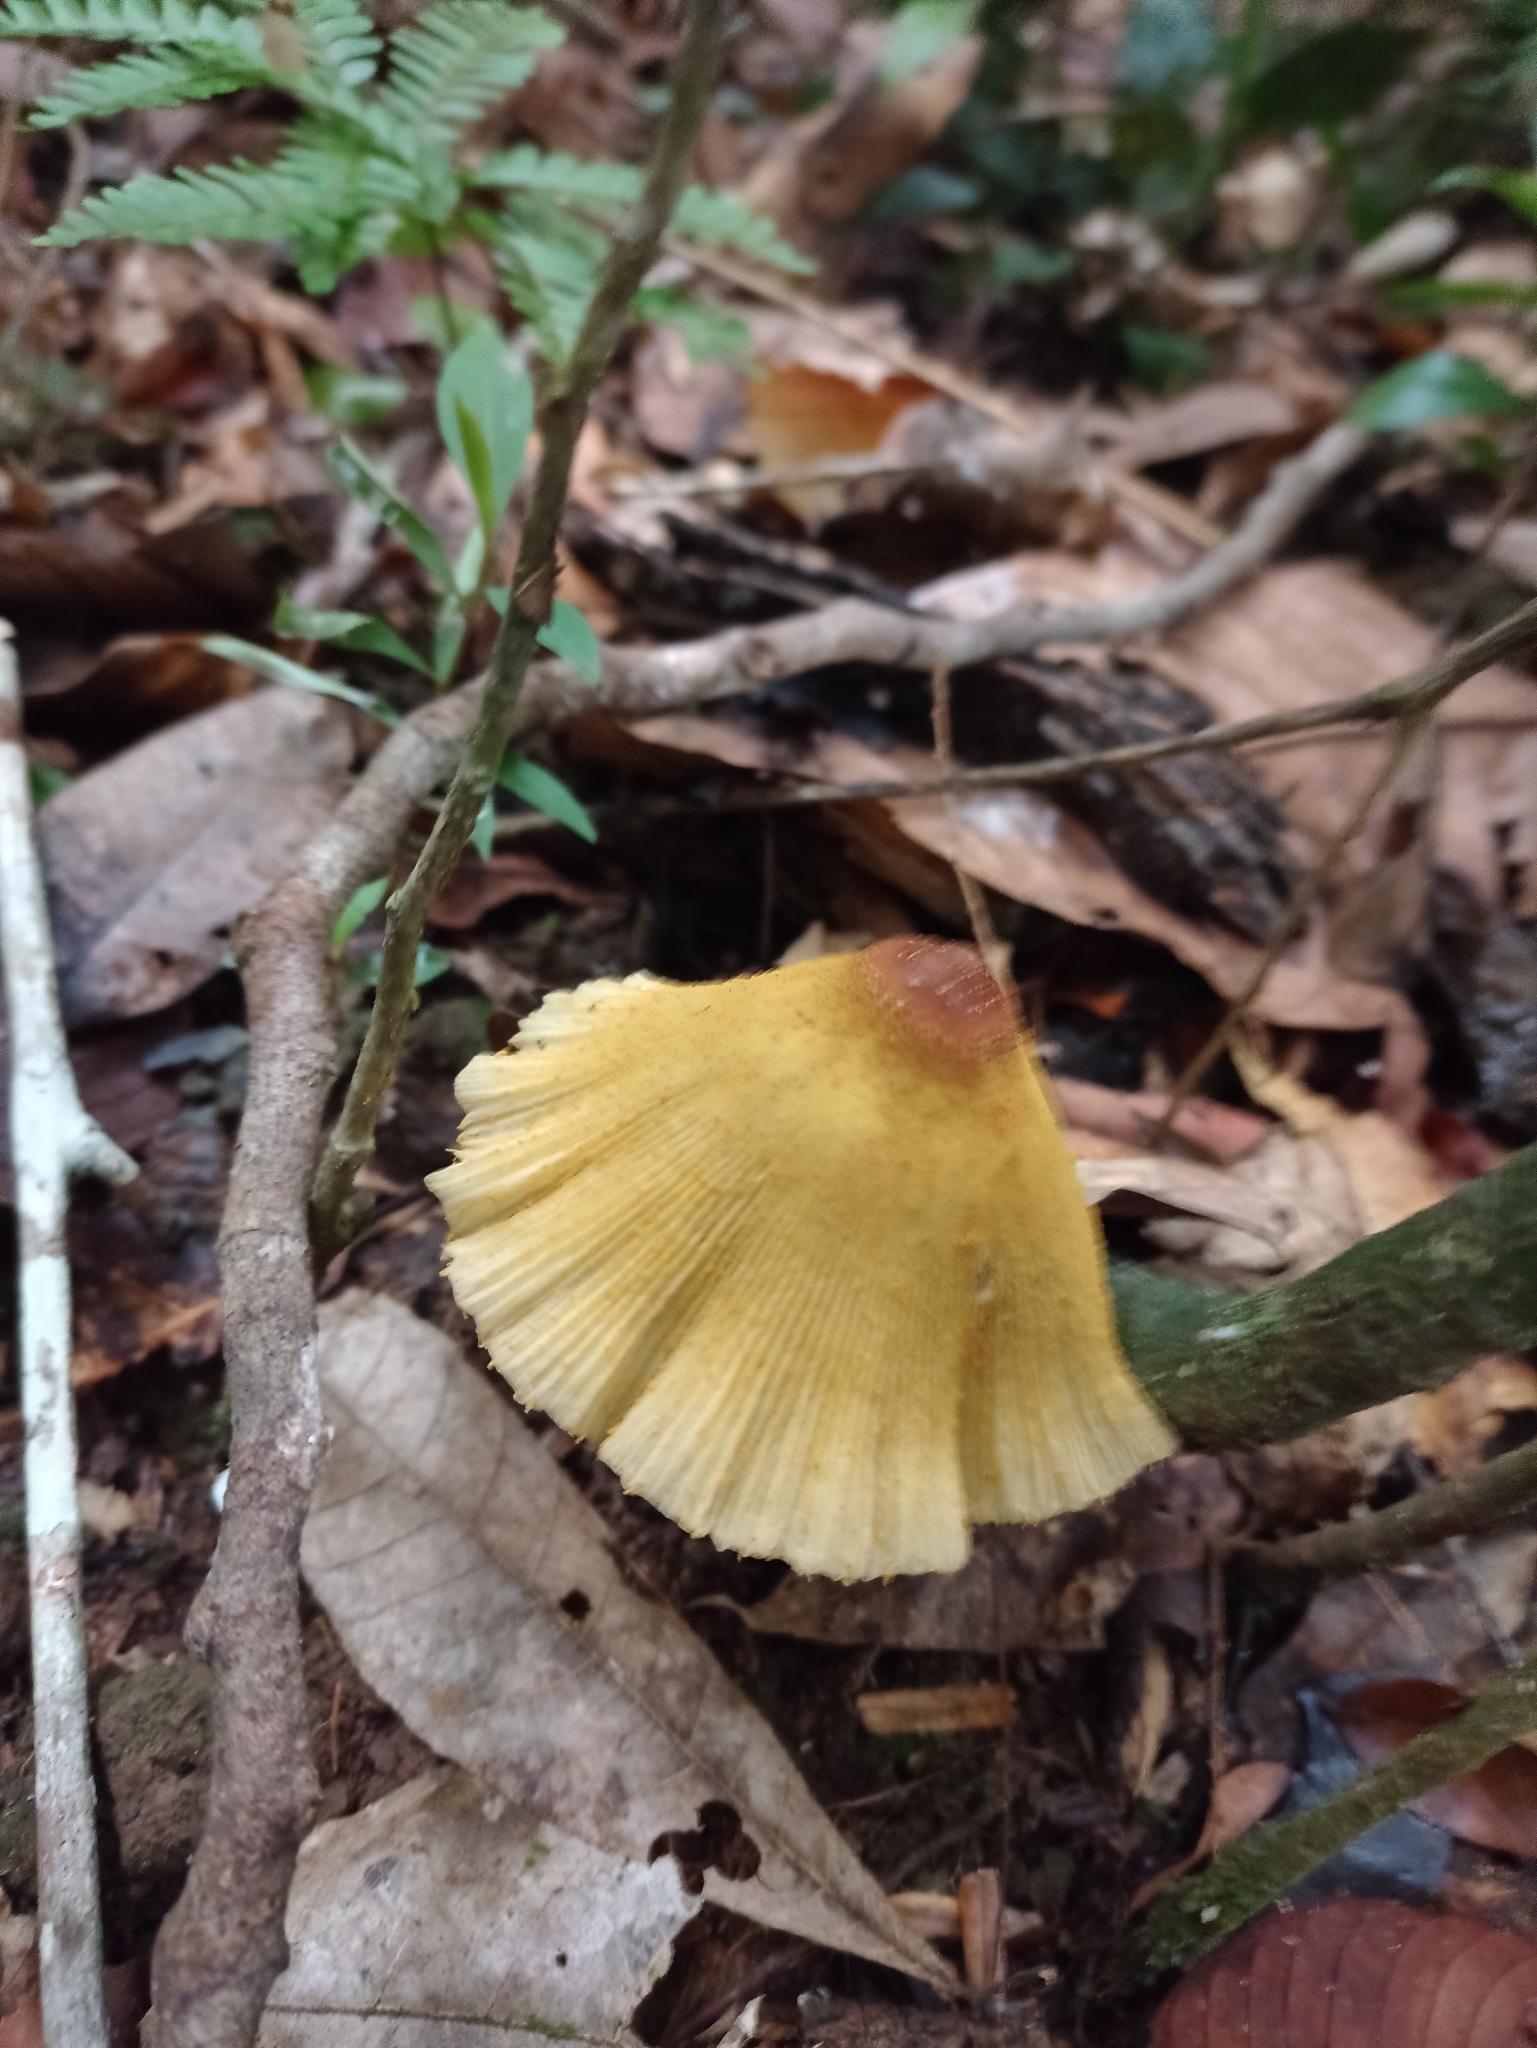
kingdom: Fungi
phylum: Basidiomycota
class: Agaricomycetes
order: Agaricales
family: Agaricaceae
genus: Leucocoprinus
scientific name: Leucocoprinus brunneoluteus
